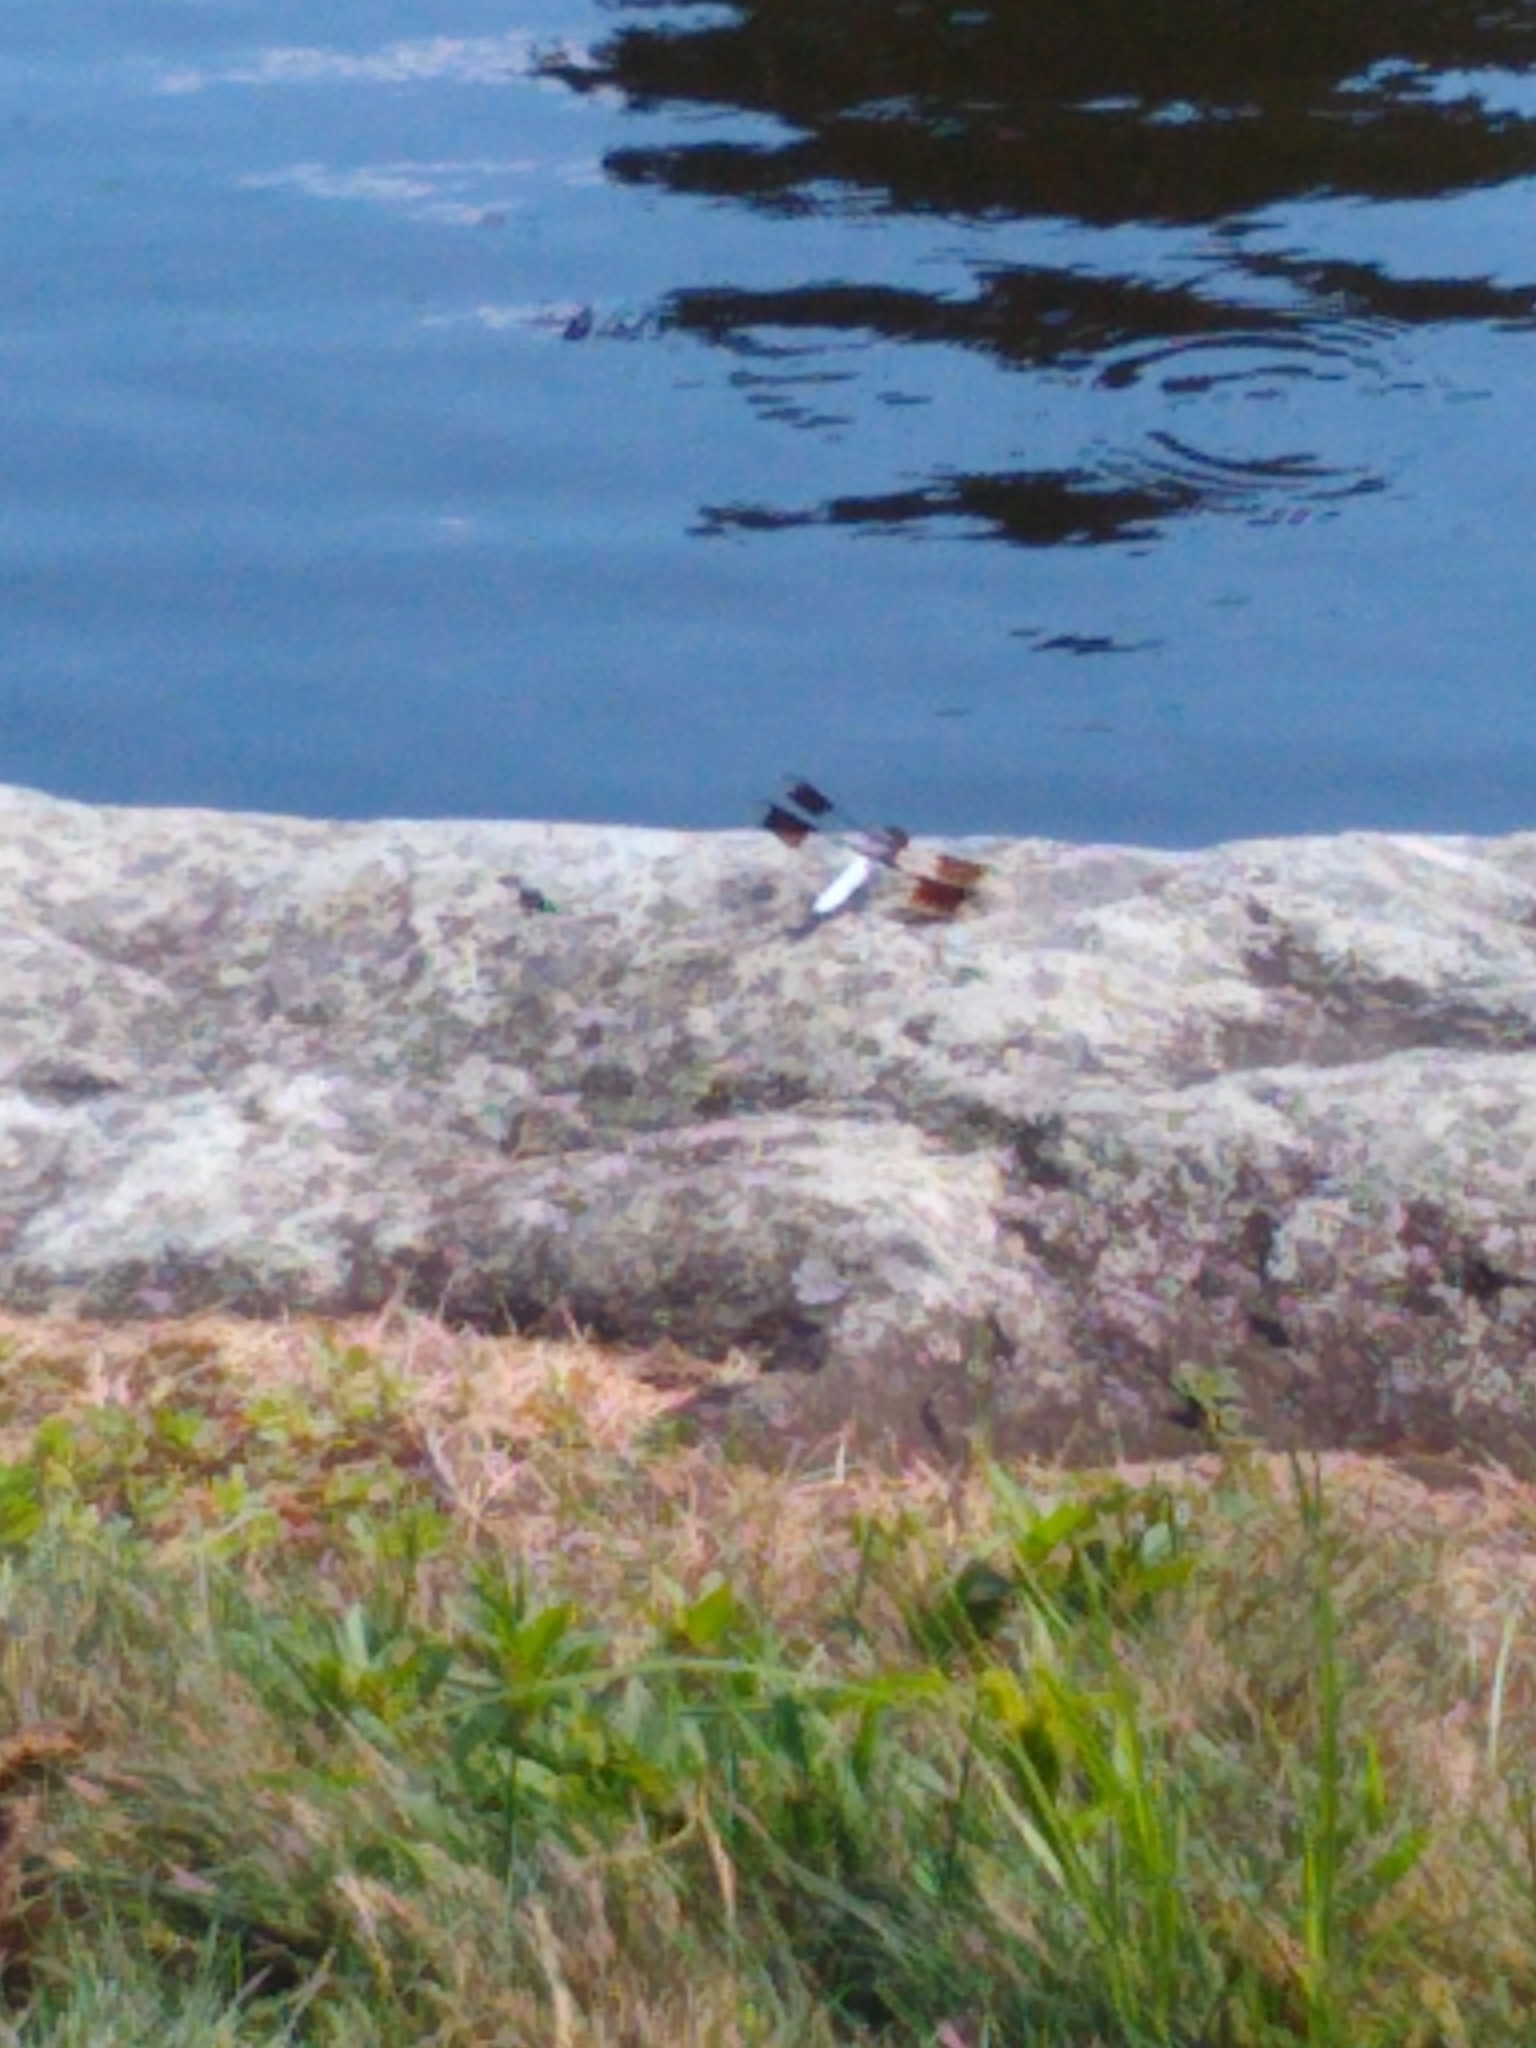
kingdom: Animalia
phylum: Arthropoda
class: Insecta
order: Odonata
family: Libellulidae
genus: Plathemis
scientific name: Plathemis lydia
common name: Common whitetail
